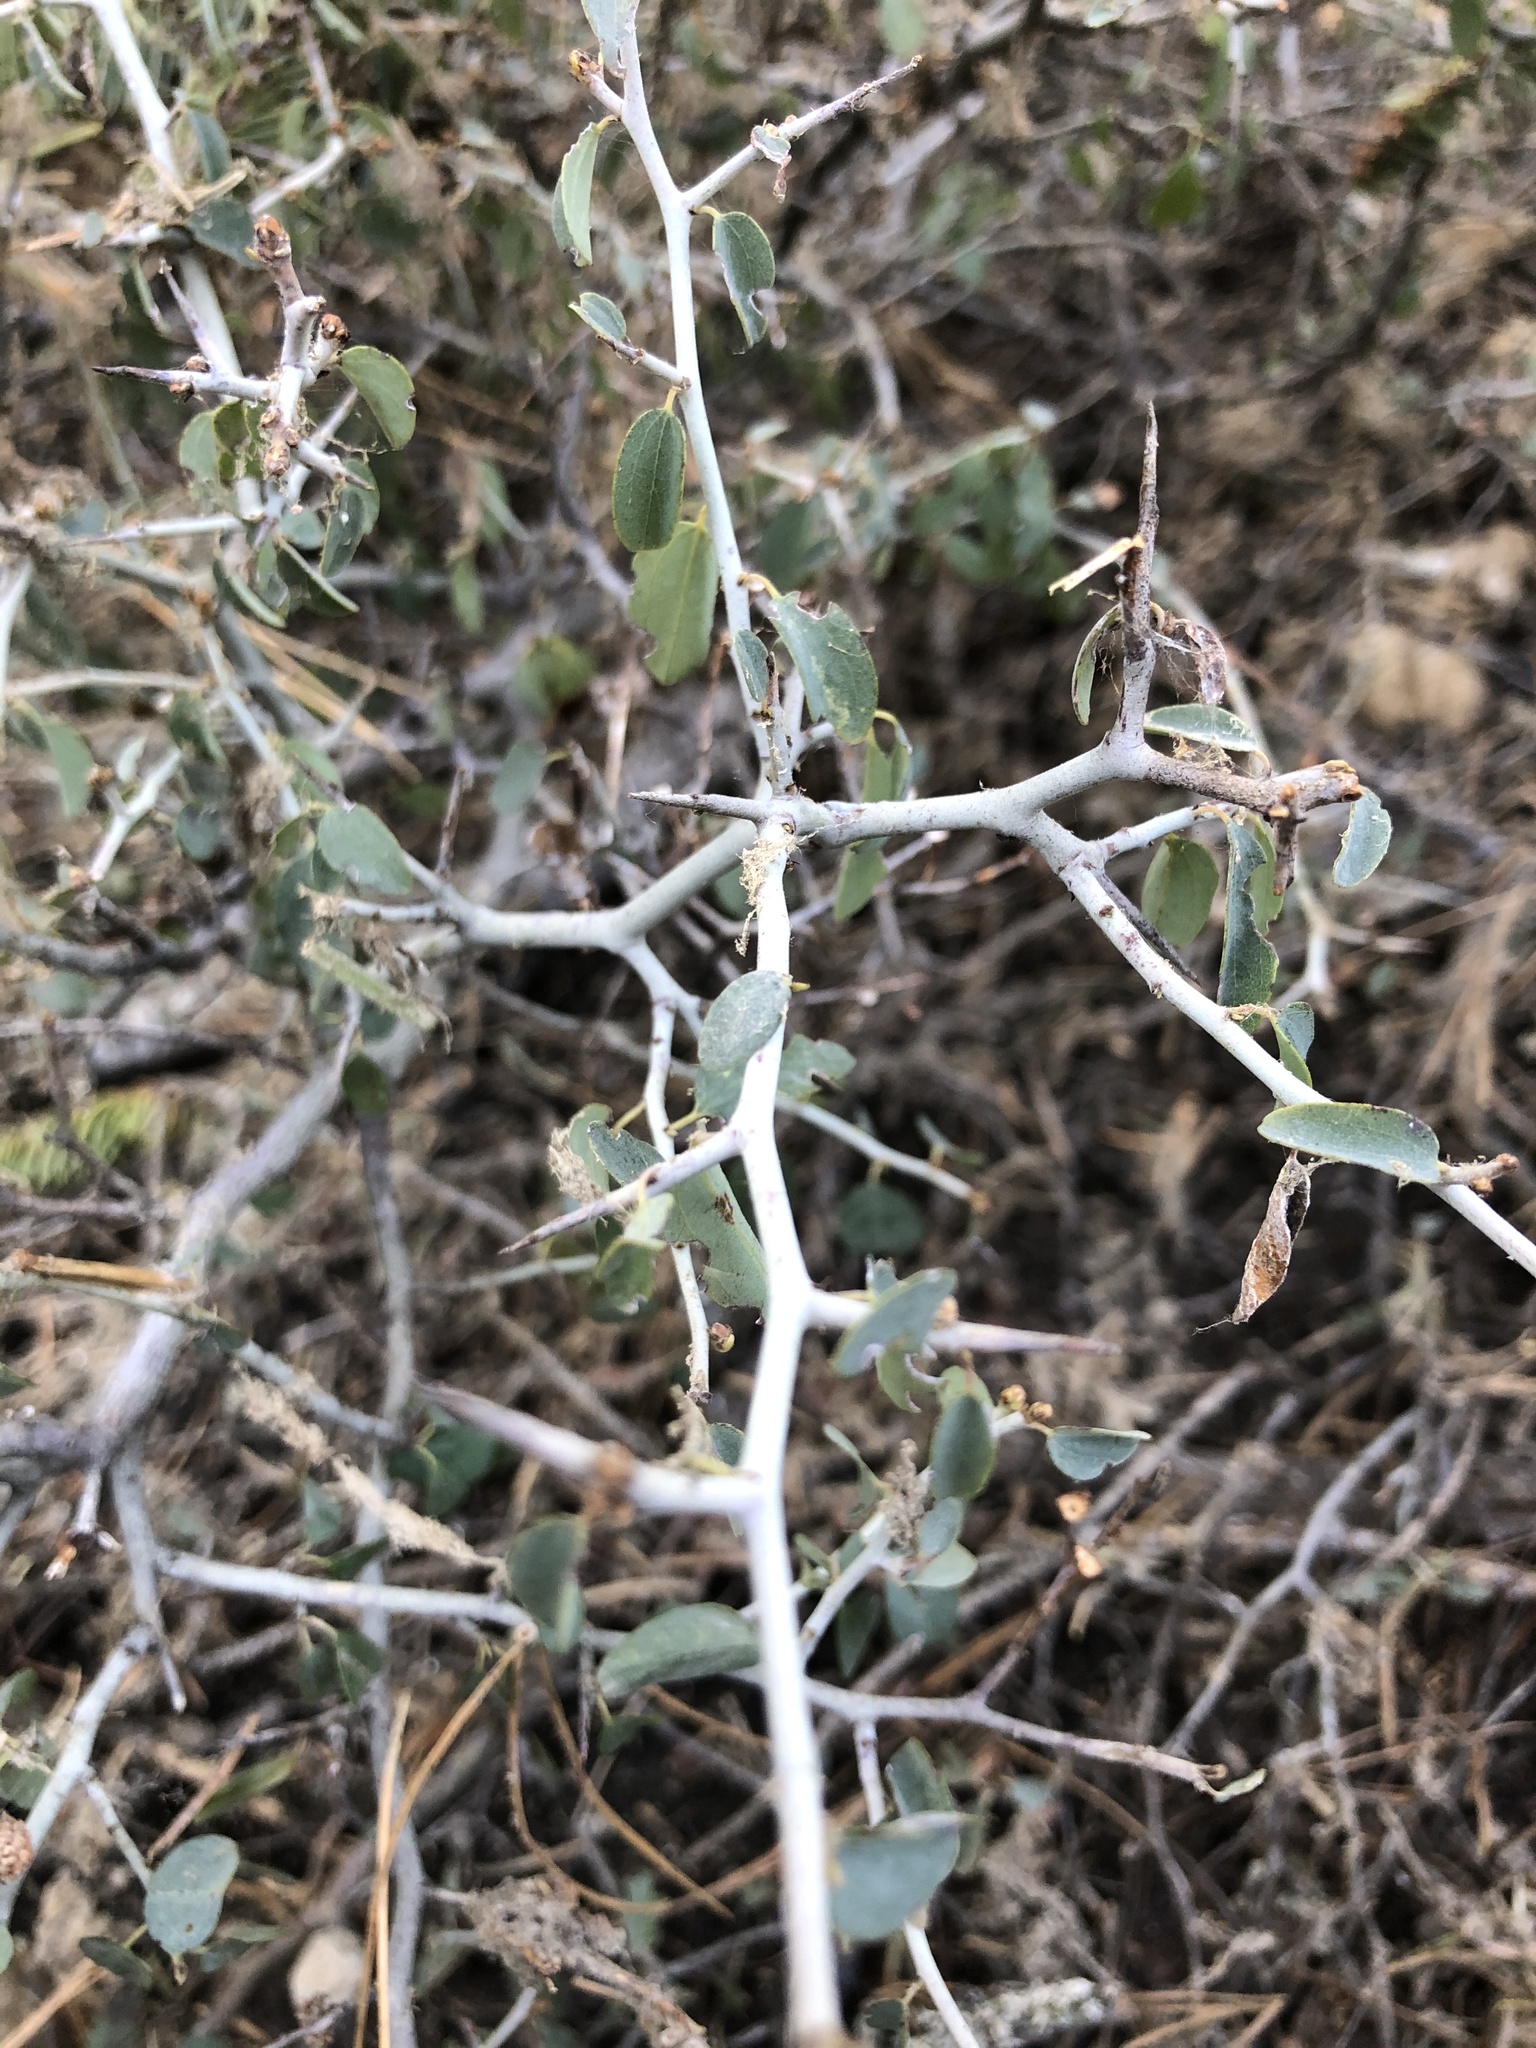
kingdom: Plantae
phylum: Tracheophyta
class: Magnoliopsida
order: Rosales
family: Rhamnaceae
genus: Ceanothus
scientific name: Ceanothus cordulatus
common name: Mountain whitethorn
